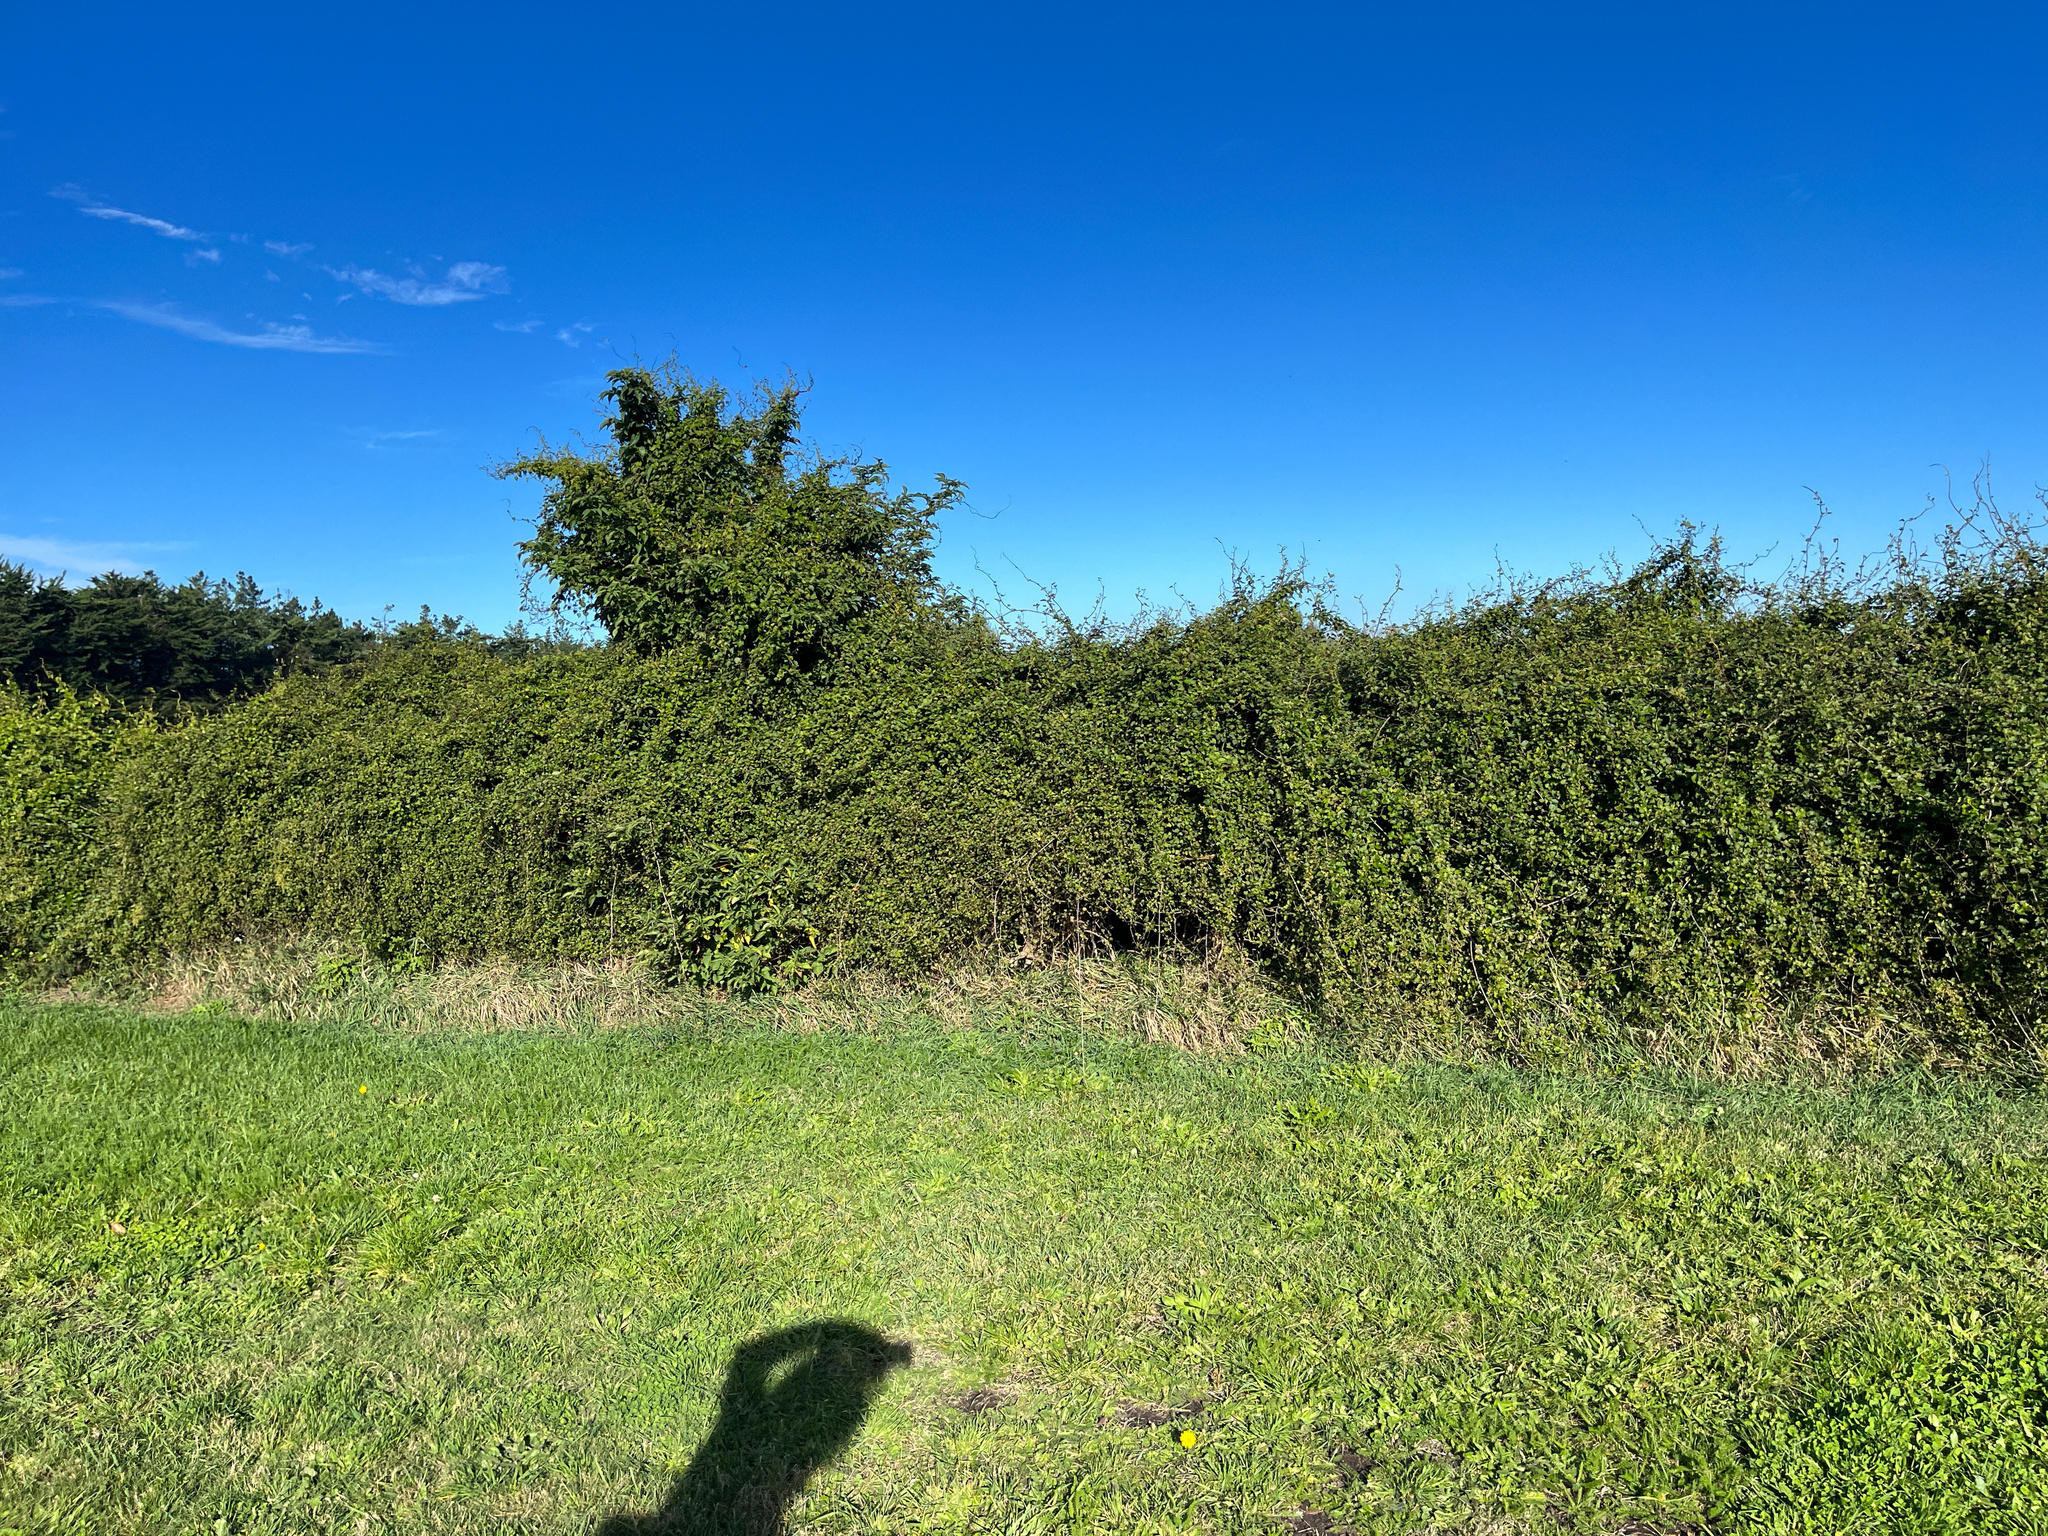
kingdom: Plantae
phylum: Tracheophyta
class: Magnoliopsida
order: Caryophyllales
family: Polygonaceae
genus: Muehlenbeckia
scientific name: Muehlenbeckia australis
